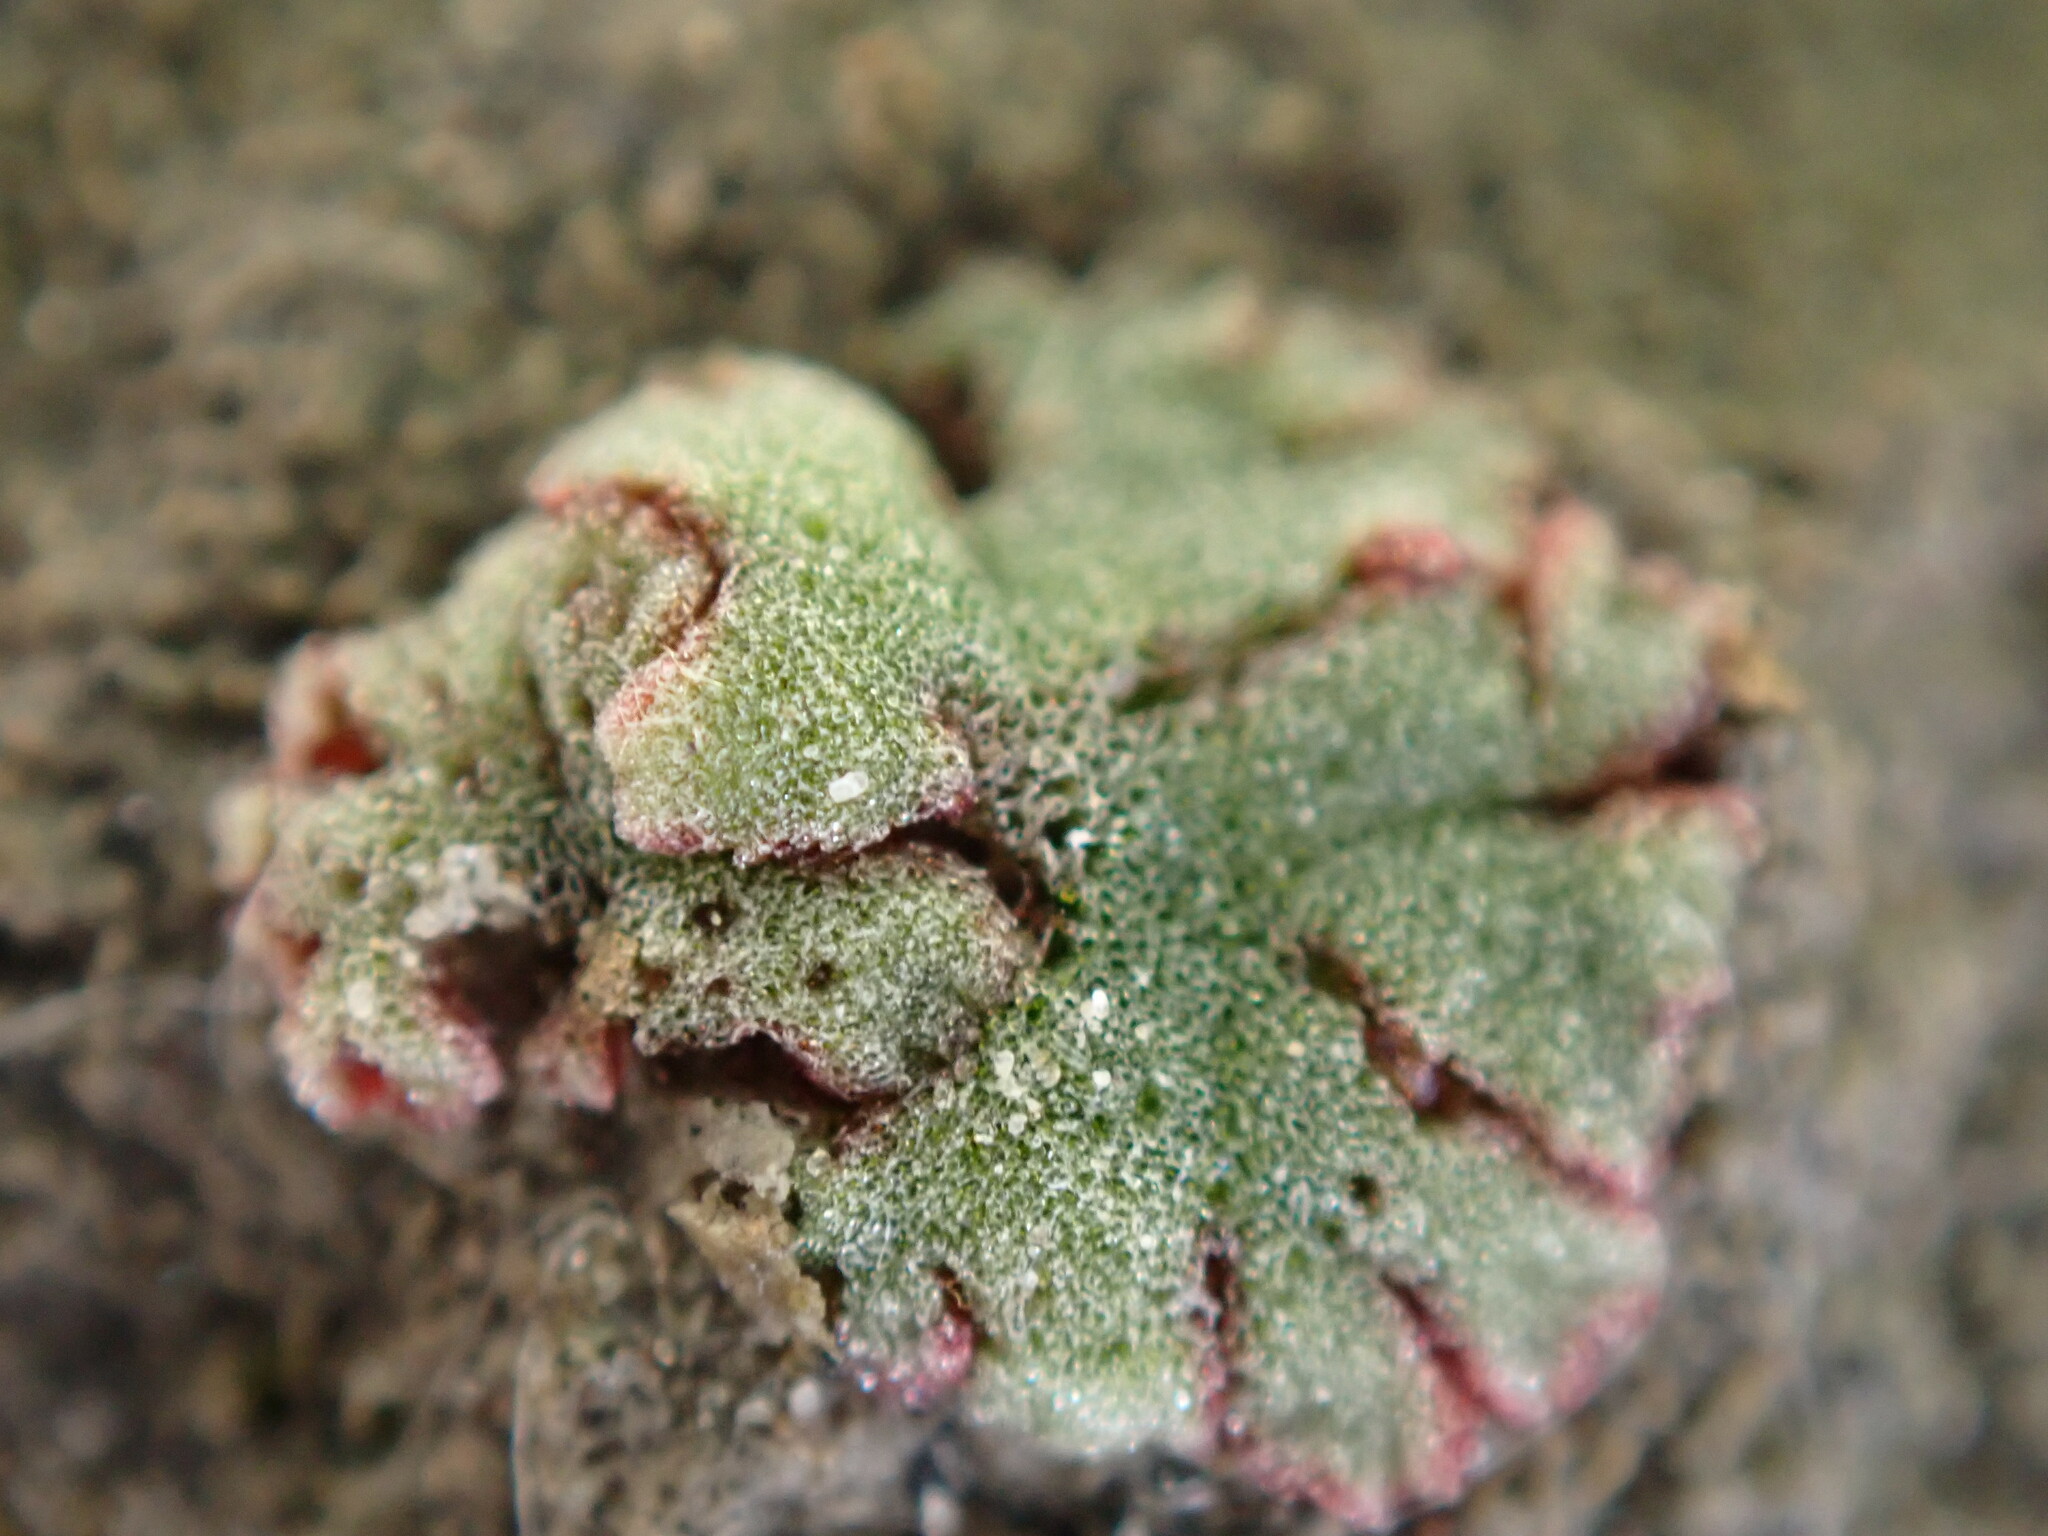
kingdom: Plantae
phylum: Marchantiophyta
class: Marchantiopsida
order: Marchantiales
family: Ricciaceae
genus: Riccia
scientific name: Riccia frostii
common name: Frost s crystalwort
